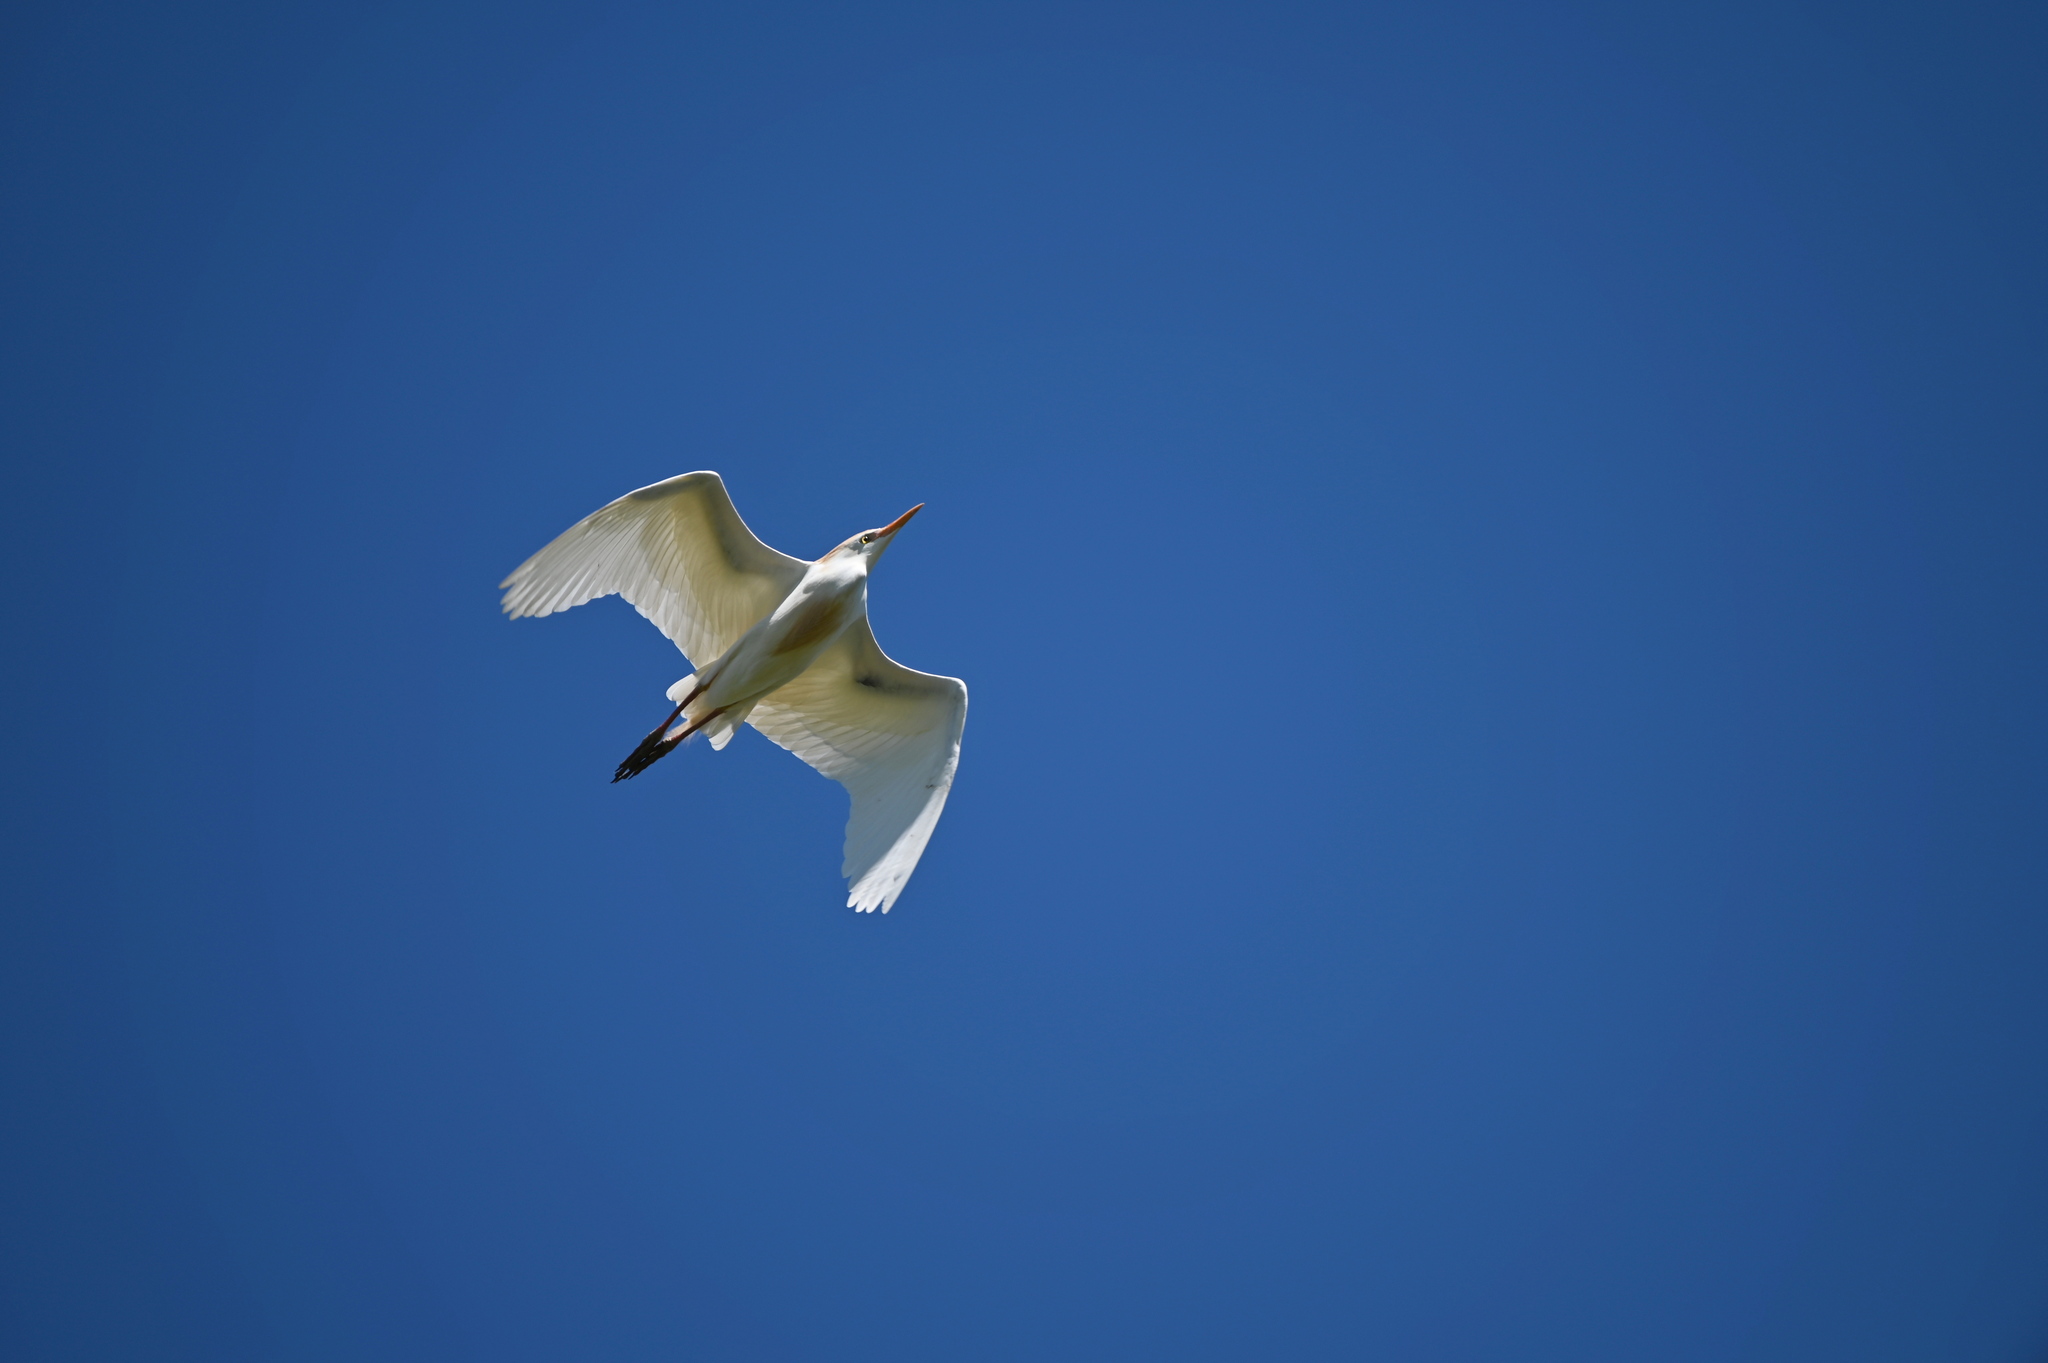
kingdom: Animalia
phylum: Chordata
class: Aves
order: Pelecaniformes
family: Ardeidae
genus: Bubulcus
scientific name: Bubulcus ibis
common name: Cattle egret
